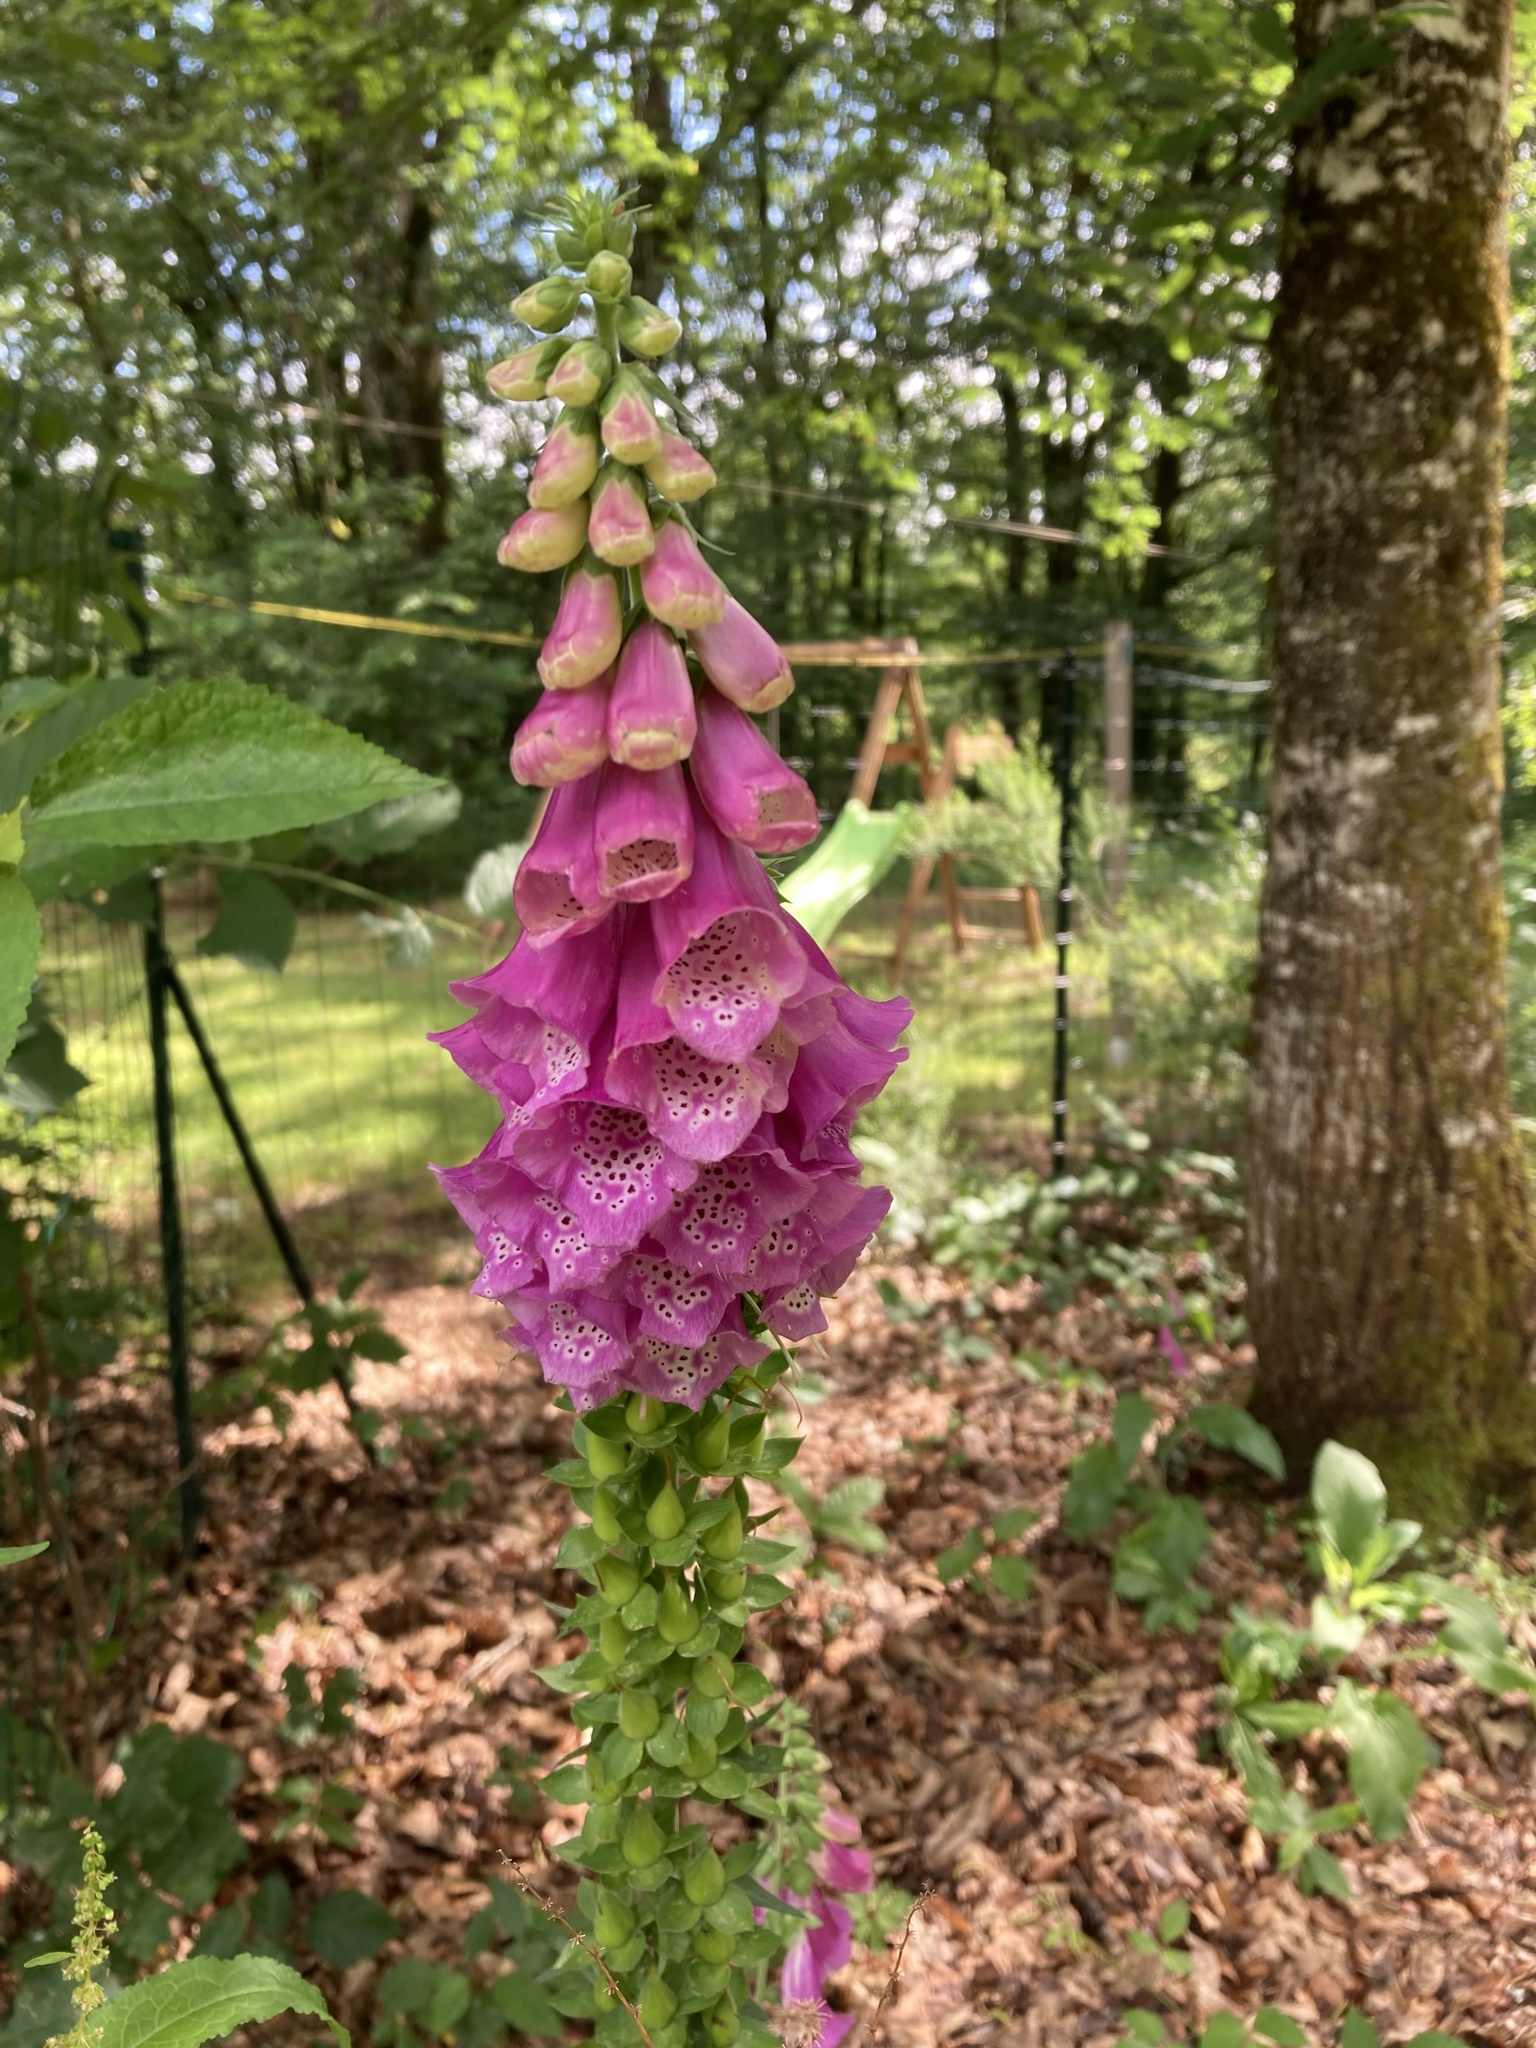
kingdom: Plantae
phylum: Tracheophyta
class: Magnoliopsida
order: Lamiales
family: Plantaginaceae
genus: Digitalis
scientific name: Digitalis purpurea
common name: Foxglove
